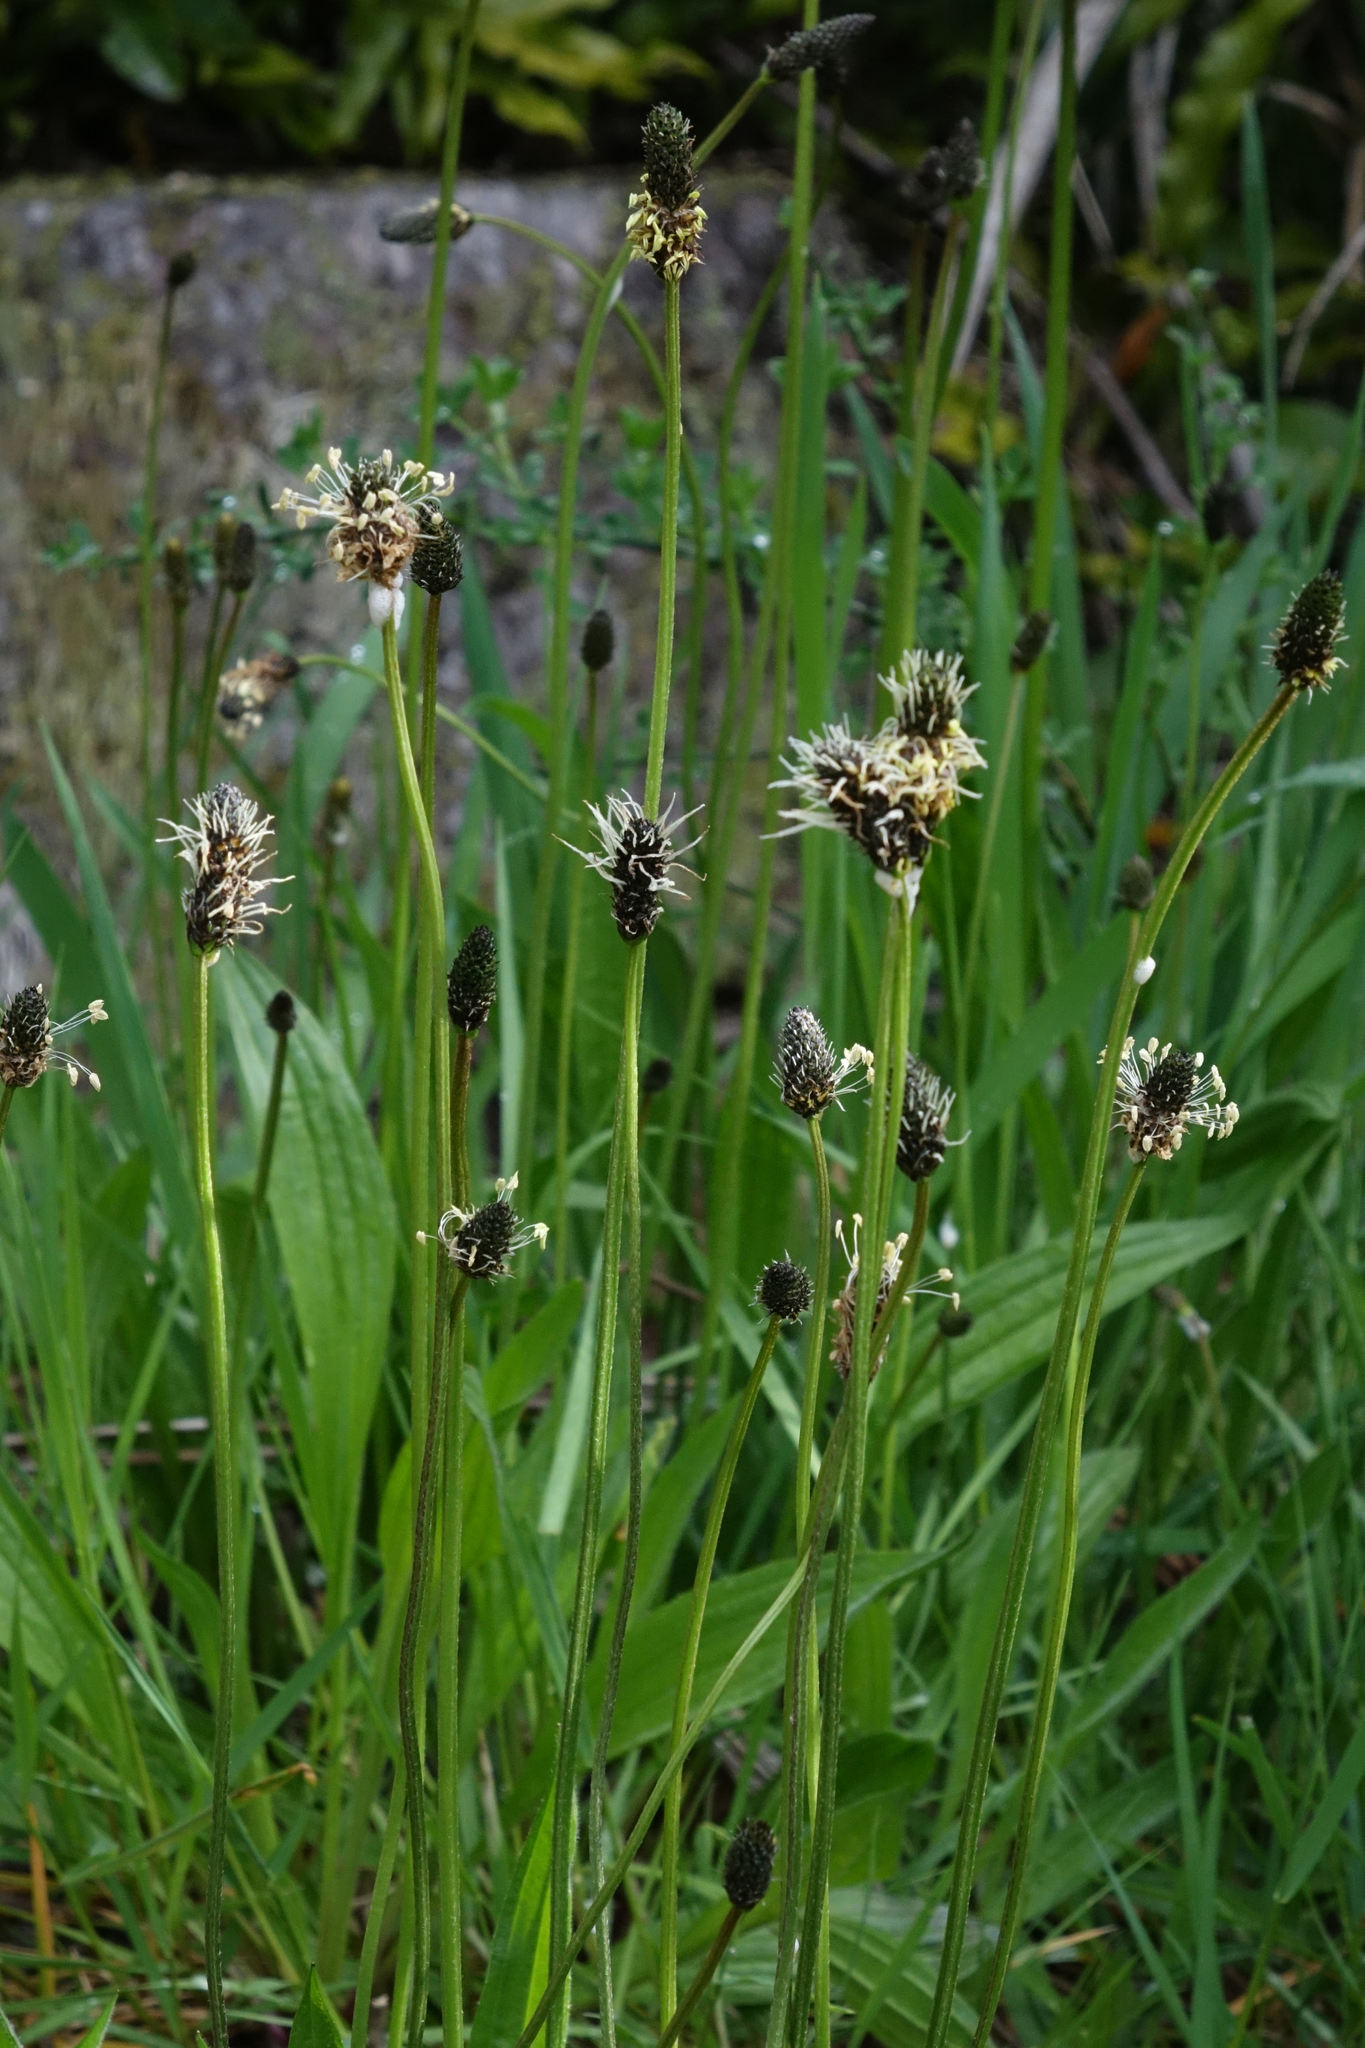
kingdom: Plantae
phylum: Tracheophyta
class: Magnoliopsida
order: Lamiales
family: Plantaginaceae
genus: Plantago
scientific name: Plantago lanceolata
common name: Ribwort plantain
